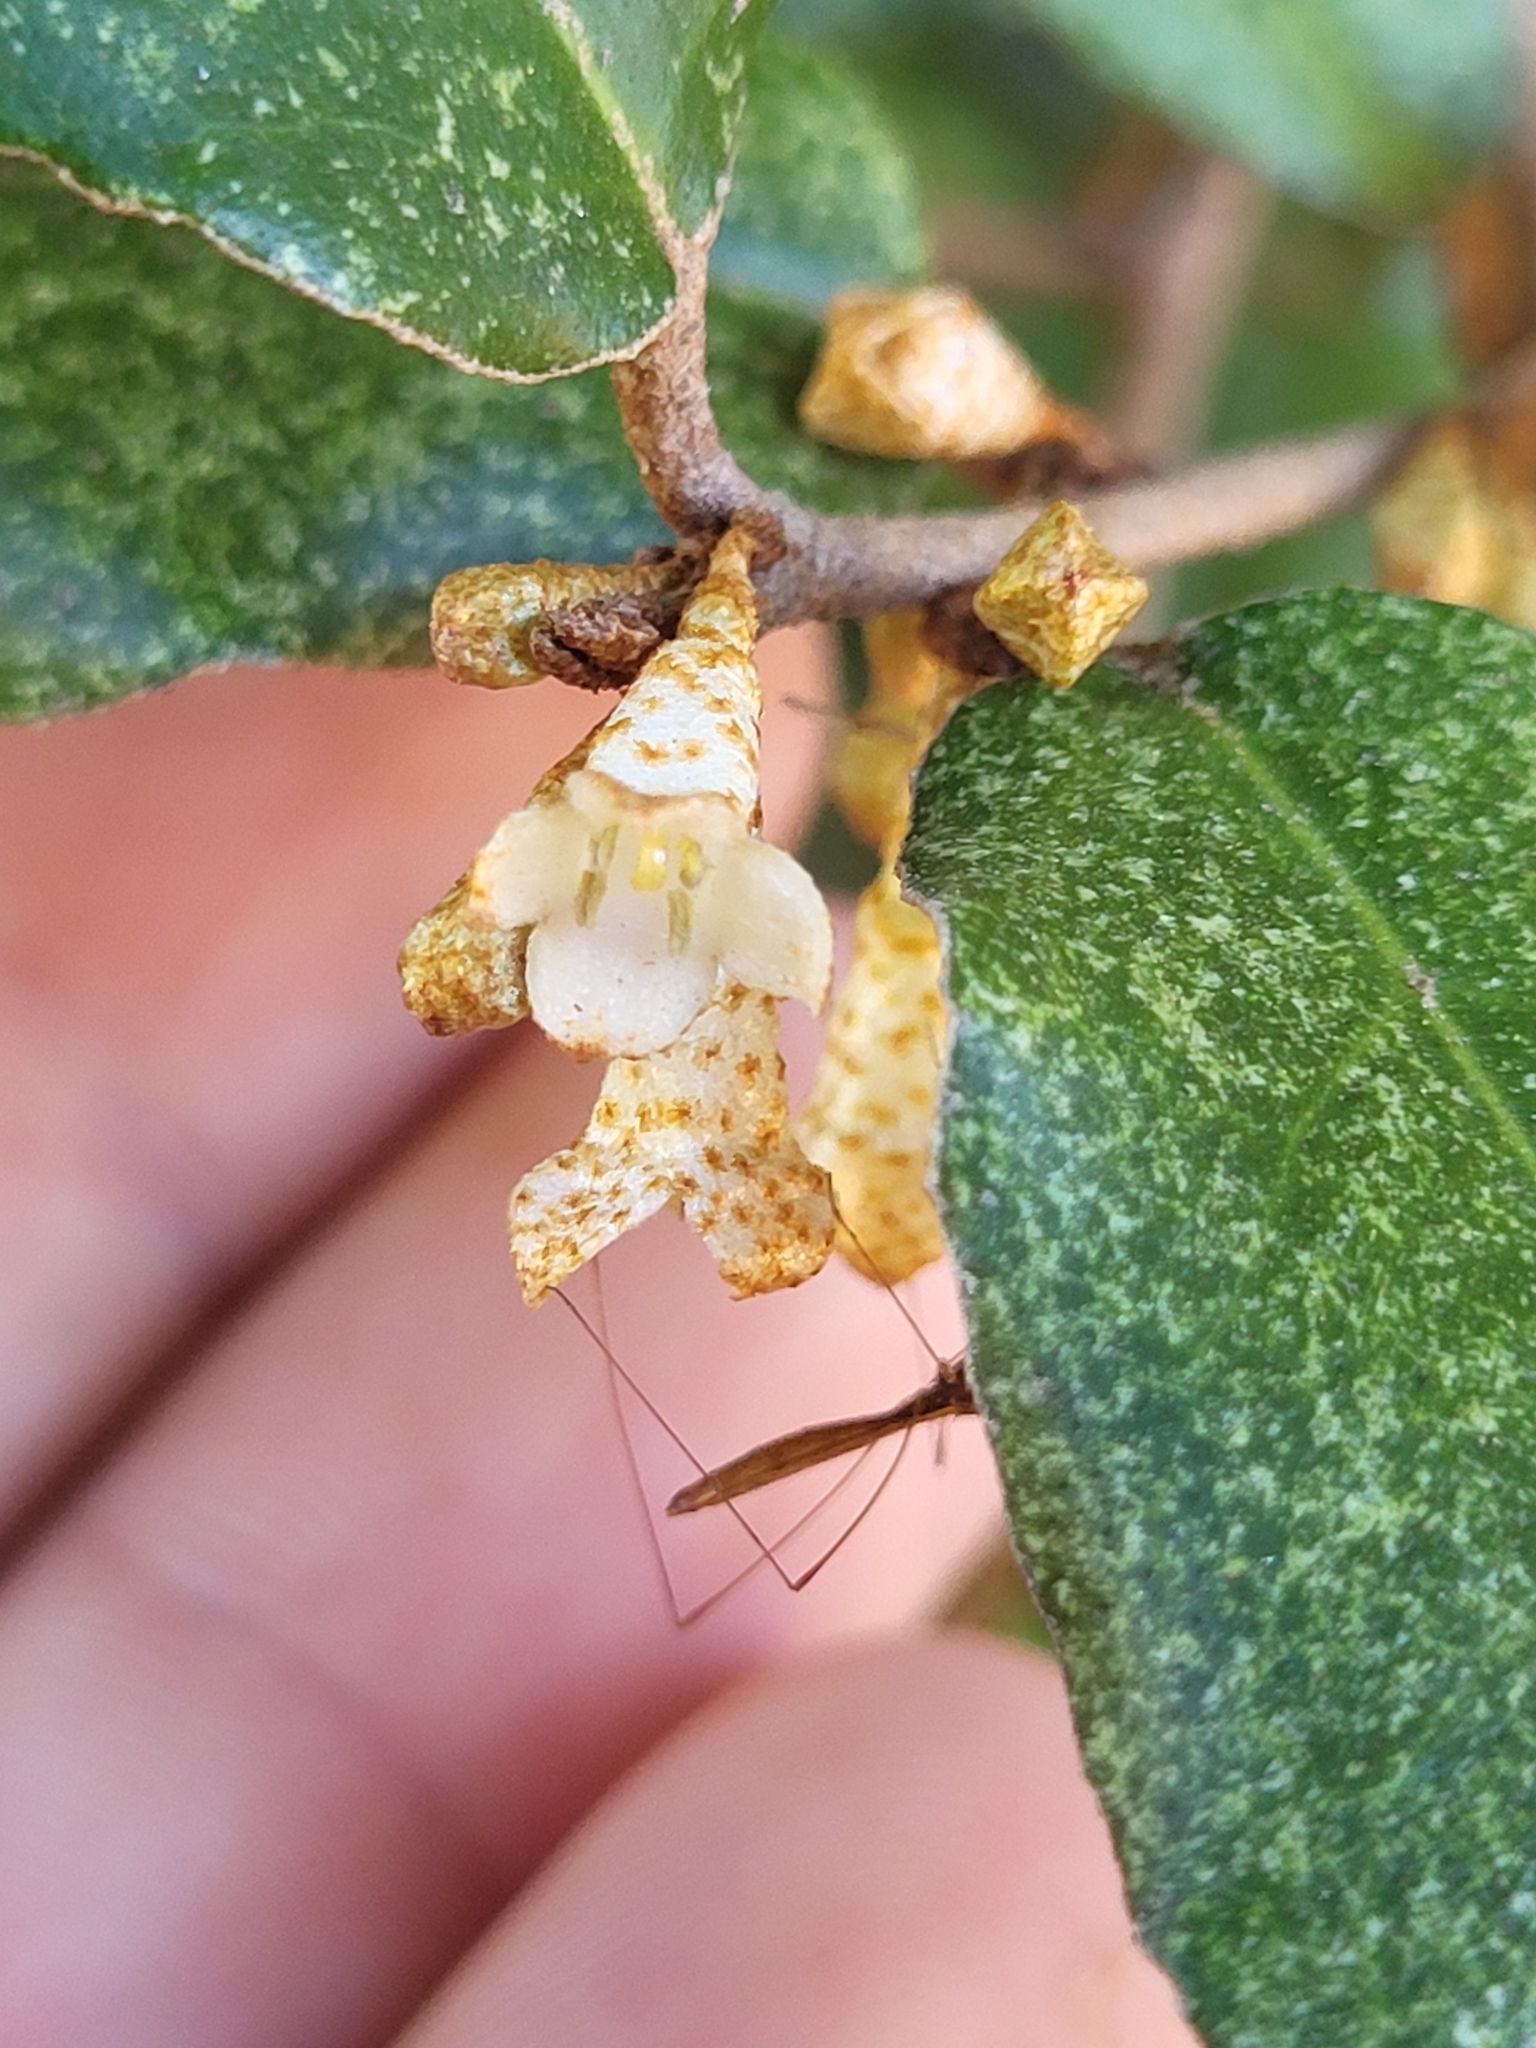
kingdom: Plantae
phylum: Tracheophyta
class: Magnoliopsida
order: Rosales
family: Elaeagnaceae
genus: Elaeagnus
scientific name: Elaeagnus pungens
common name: Spiny oleaster
